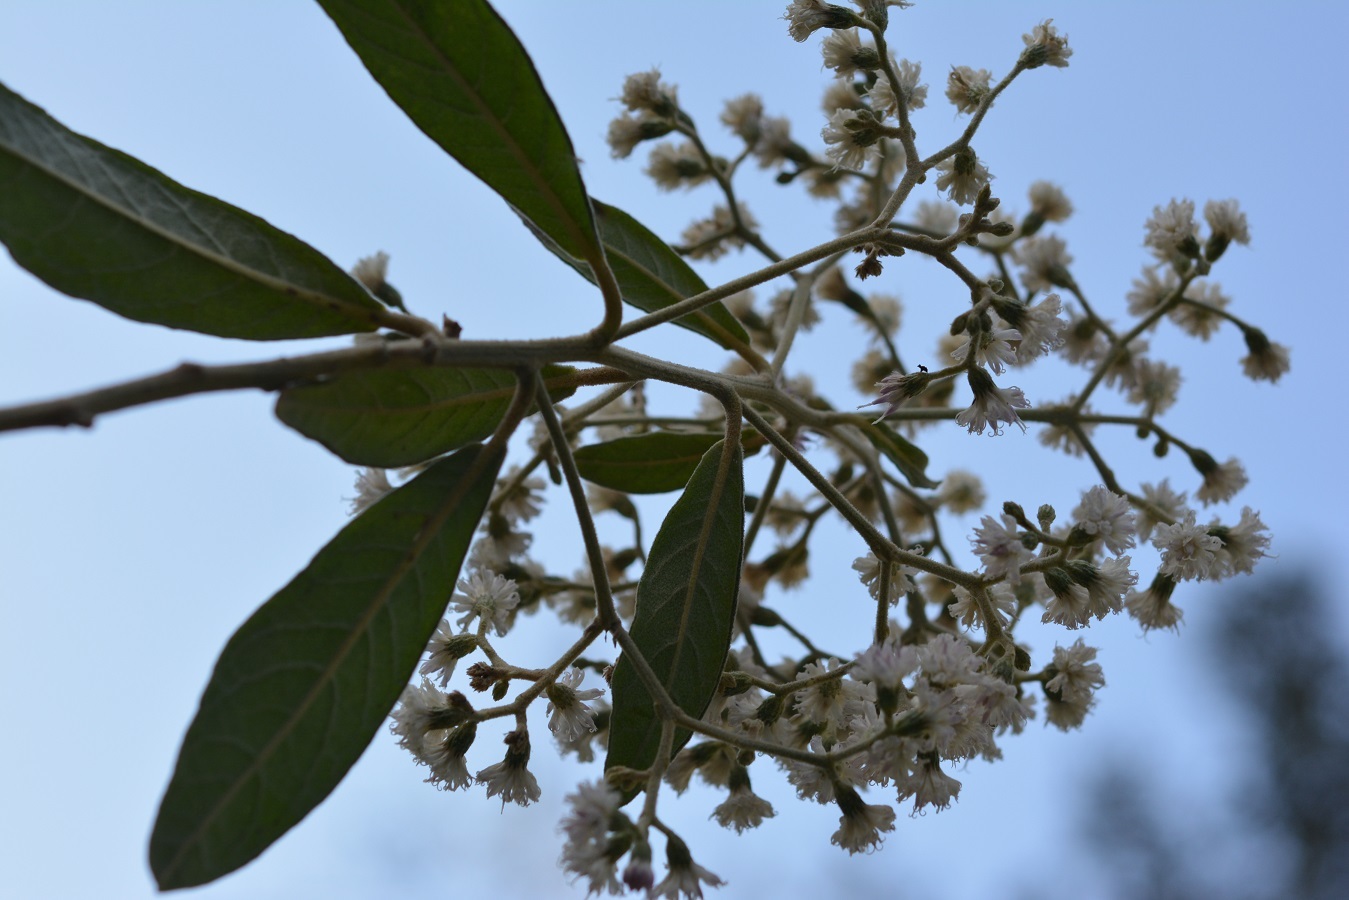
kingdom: Plantae
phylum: Tracheophyta
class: Magnoliopsida
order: Asterales
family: Asteraceae
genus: Vernonanthura
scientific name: Vernonanthura patens
